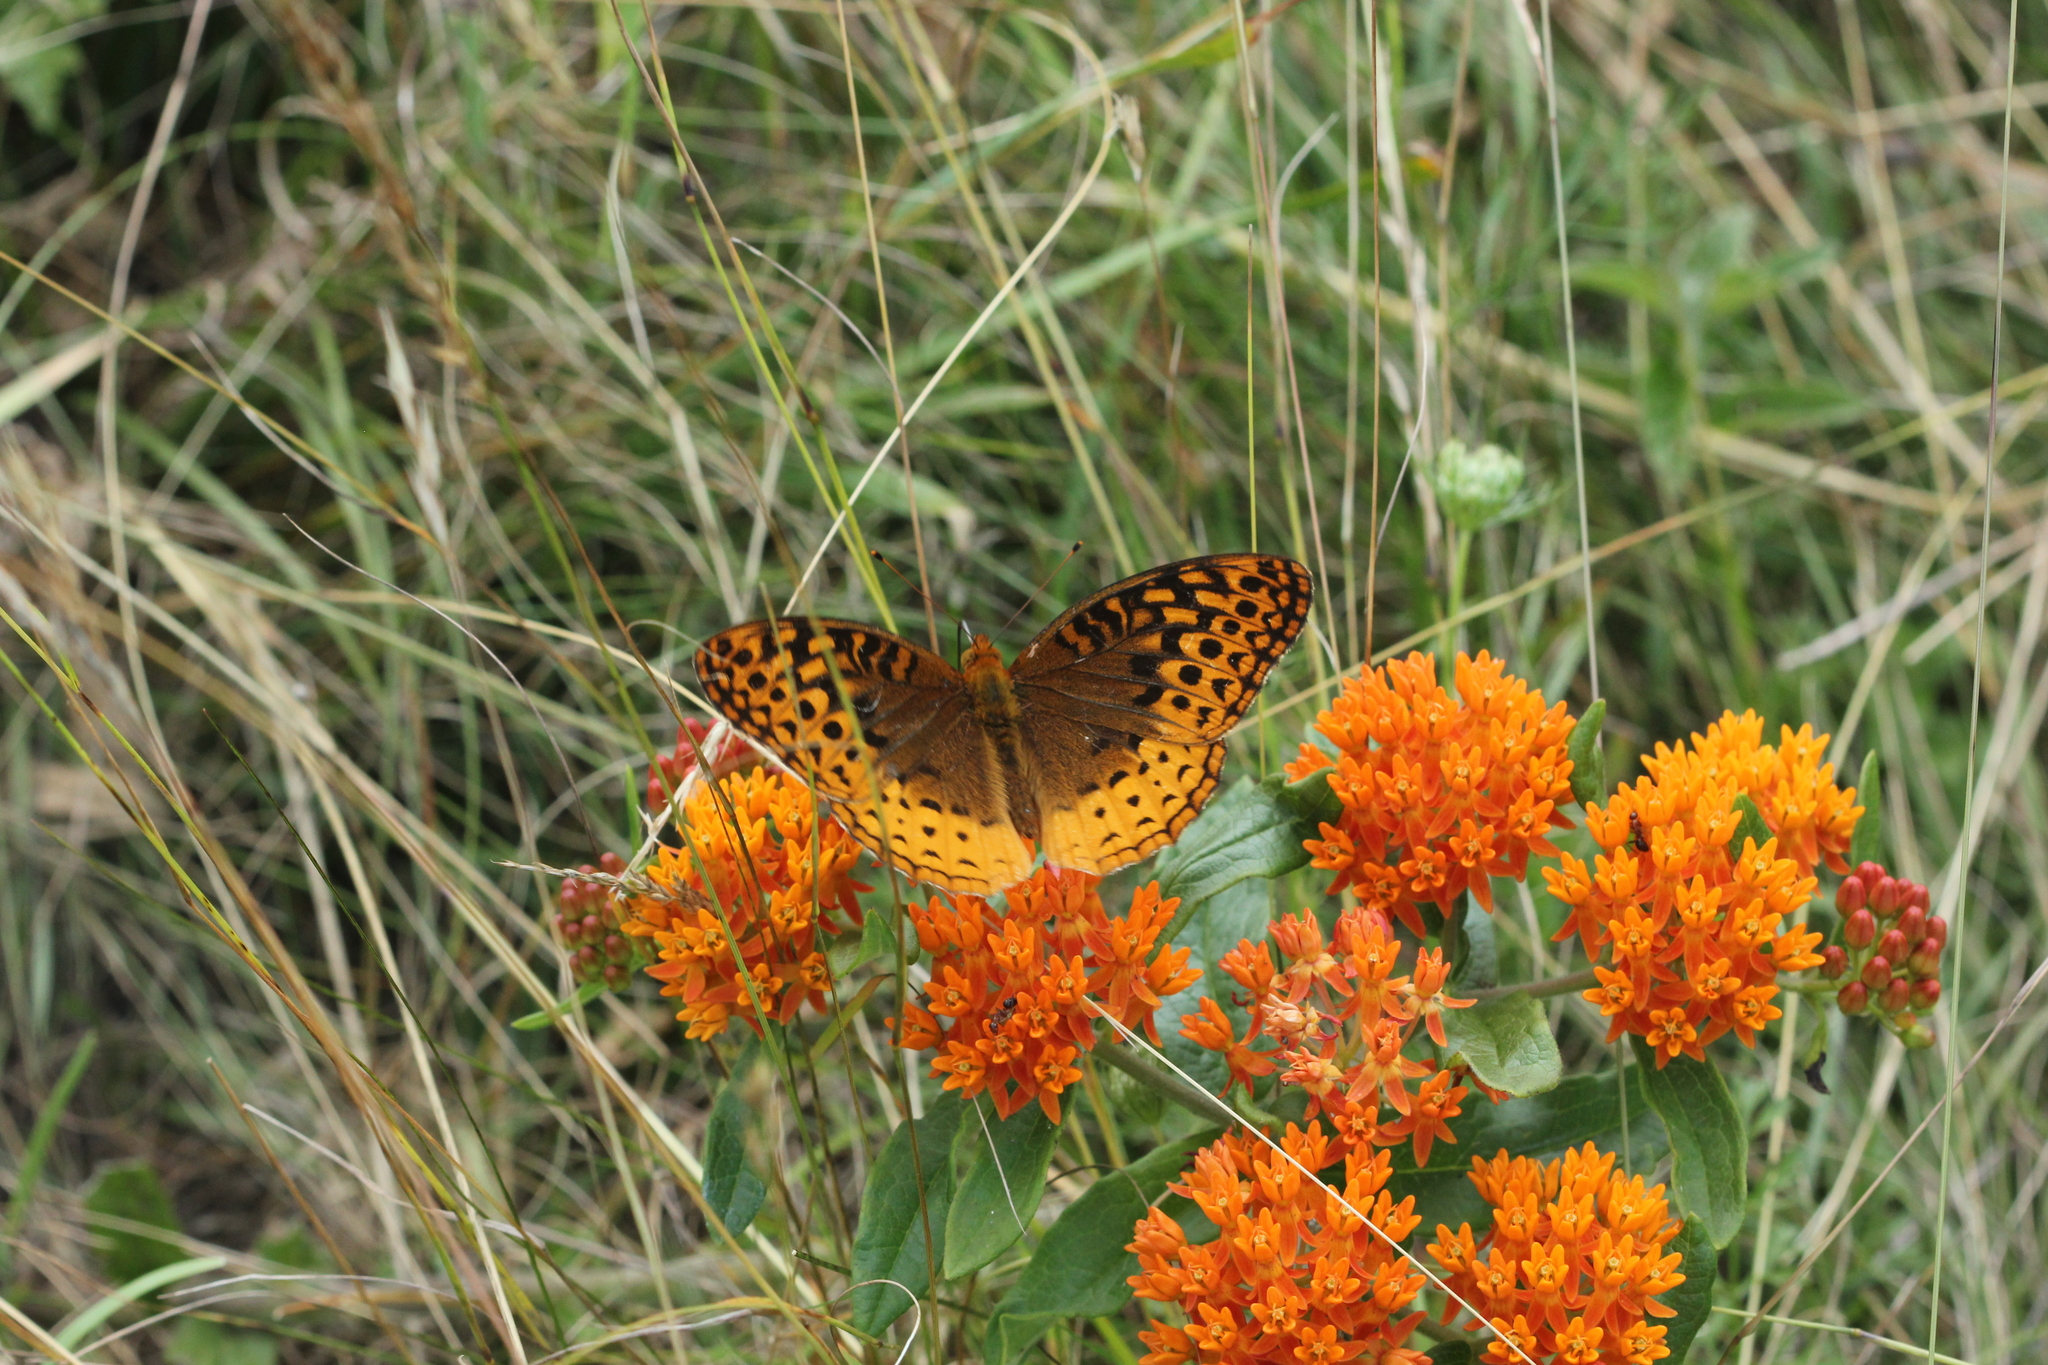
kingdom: Animalia
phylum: Arthropoda
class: Insecta
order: Lepidoptera
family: Nymphalidae
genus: Speyeria
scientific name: Speyeria cybele
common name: Great spangled fritillary
